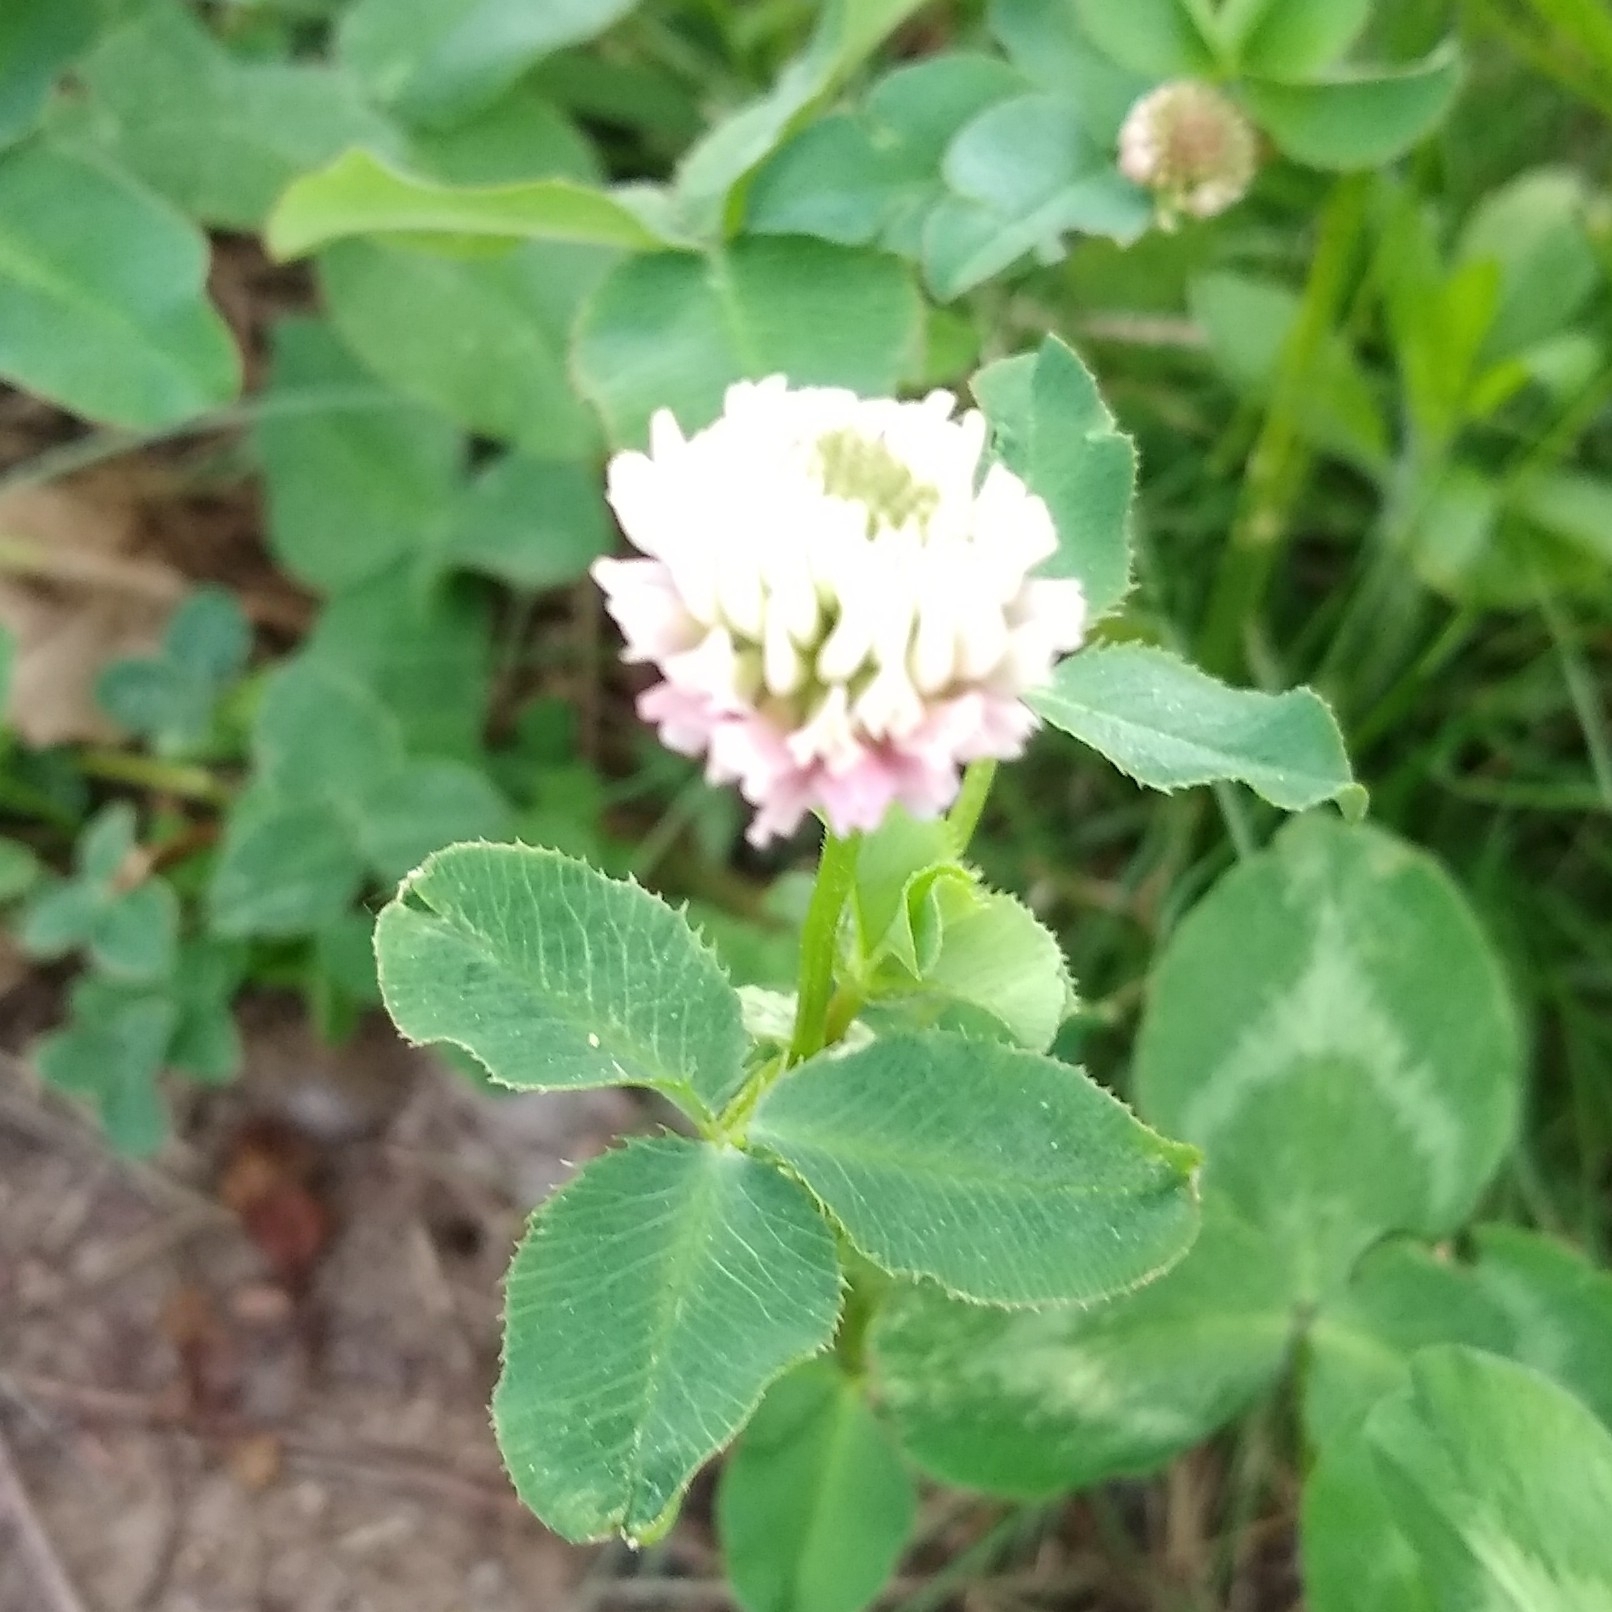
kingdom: Plantae
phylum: Tracheophyta
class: Magnoliopsida
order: Fabales
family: Fabaceae
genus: Trifolium
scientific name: Trifolium hybridum
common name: Alsike clover
